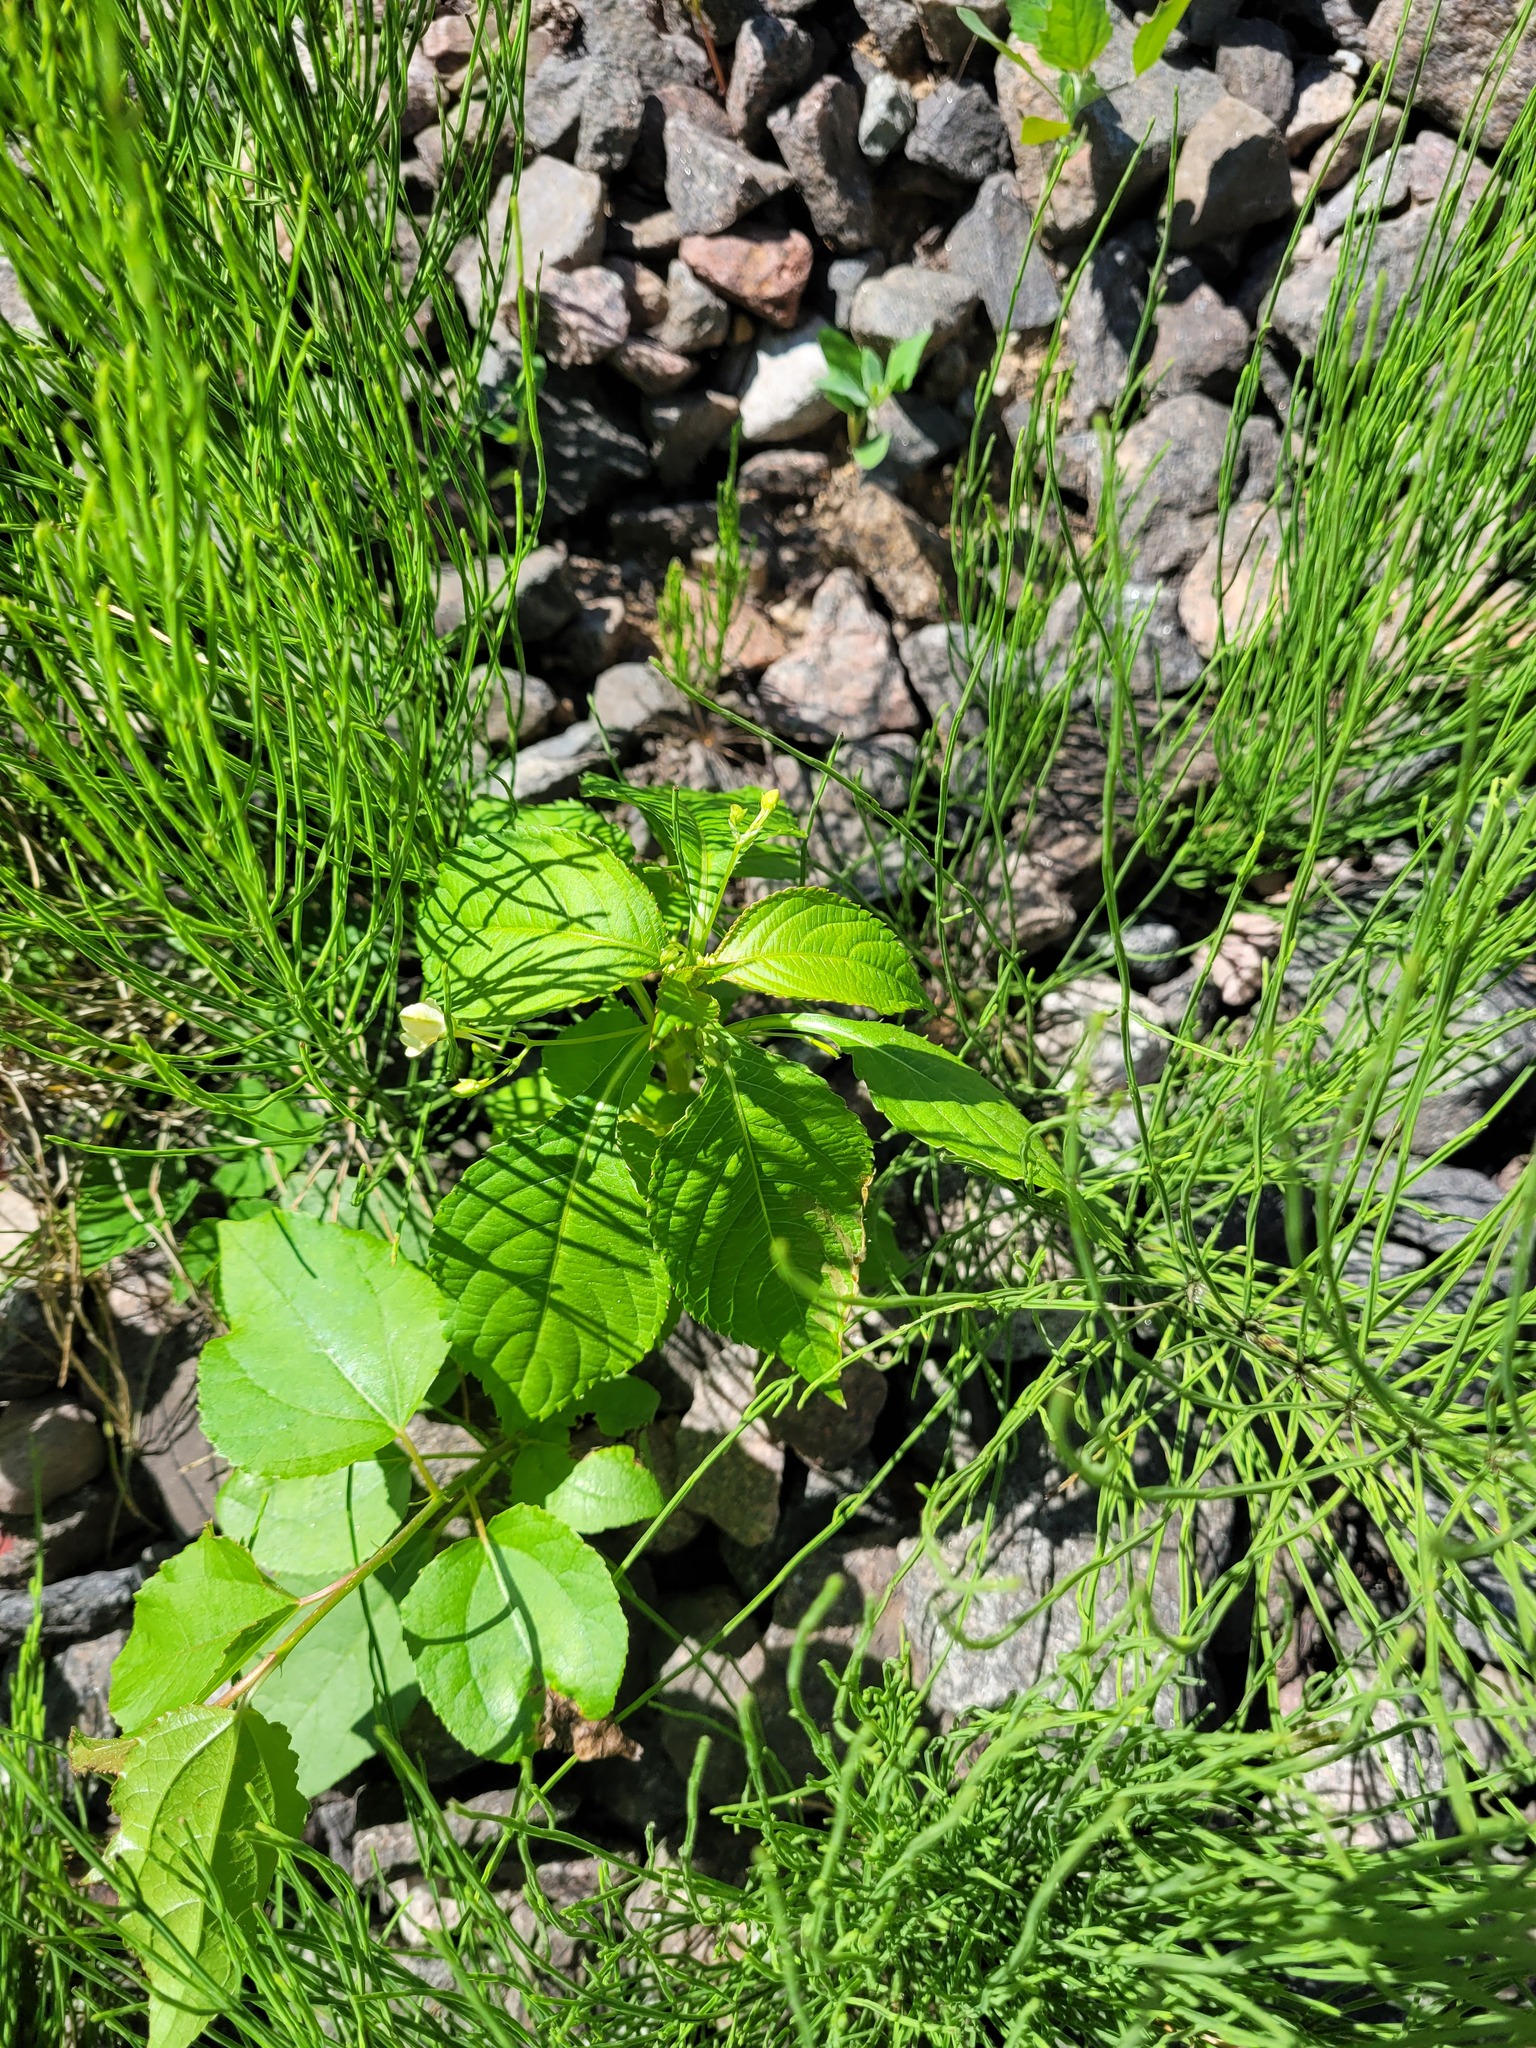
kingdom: Plantae
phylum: Tracheophyta
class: Magnoliopsida
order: Ericales
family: Balsaminaceae
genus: Impatiens
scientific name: Impatiens parviflora
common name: Small balsam
